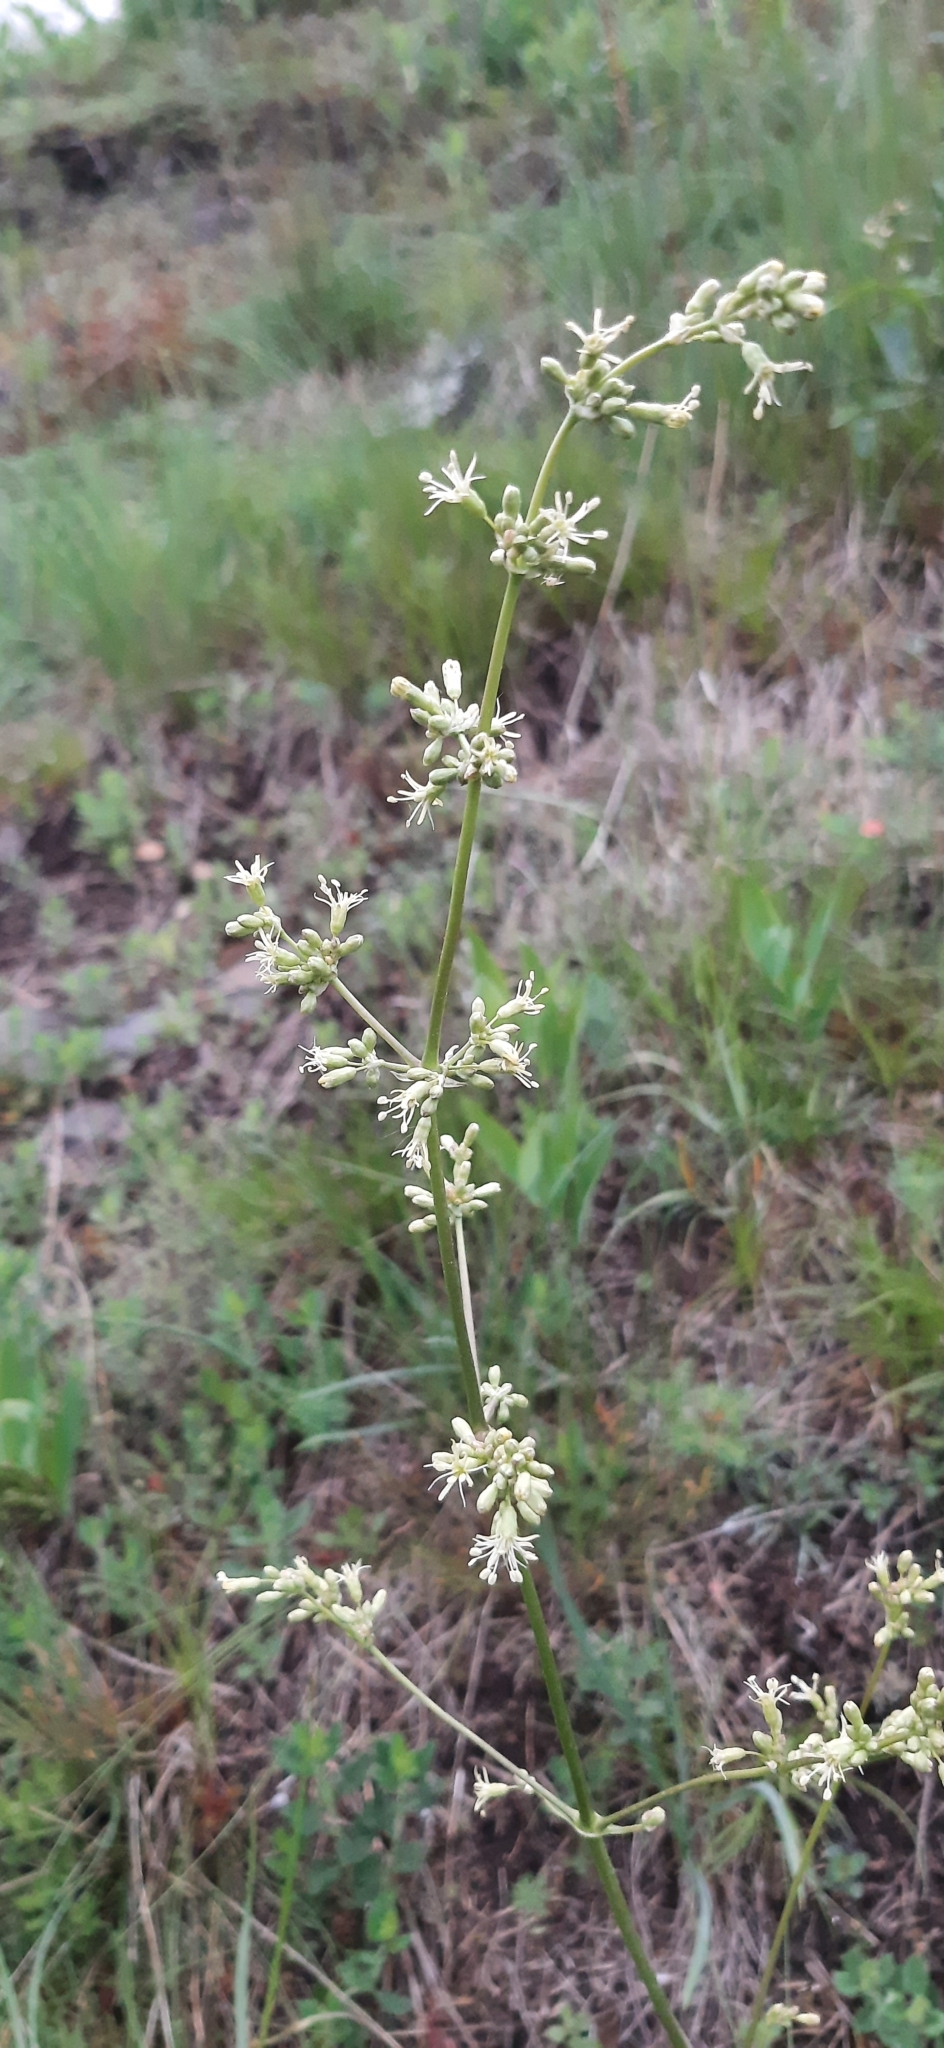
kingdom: Plantae
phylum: Tracheophyta
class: Magnoliopsida
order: Caryophyllales
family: Caryophyllaceae
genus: Silene
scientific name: Silene otites
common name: Spanish catchfly
